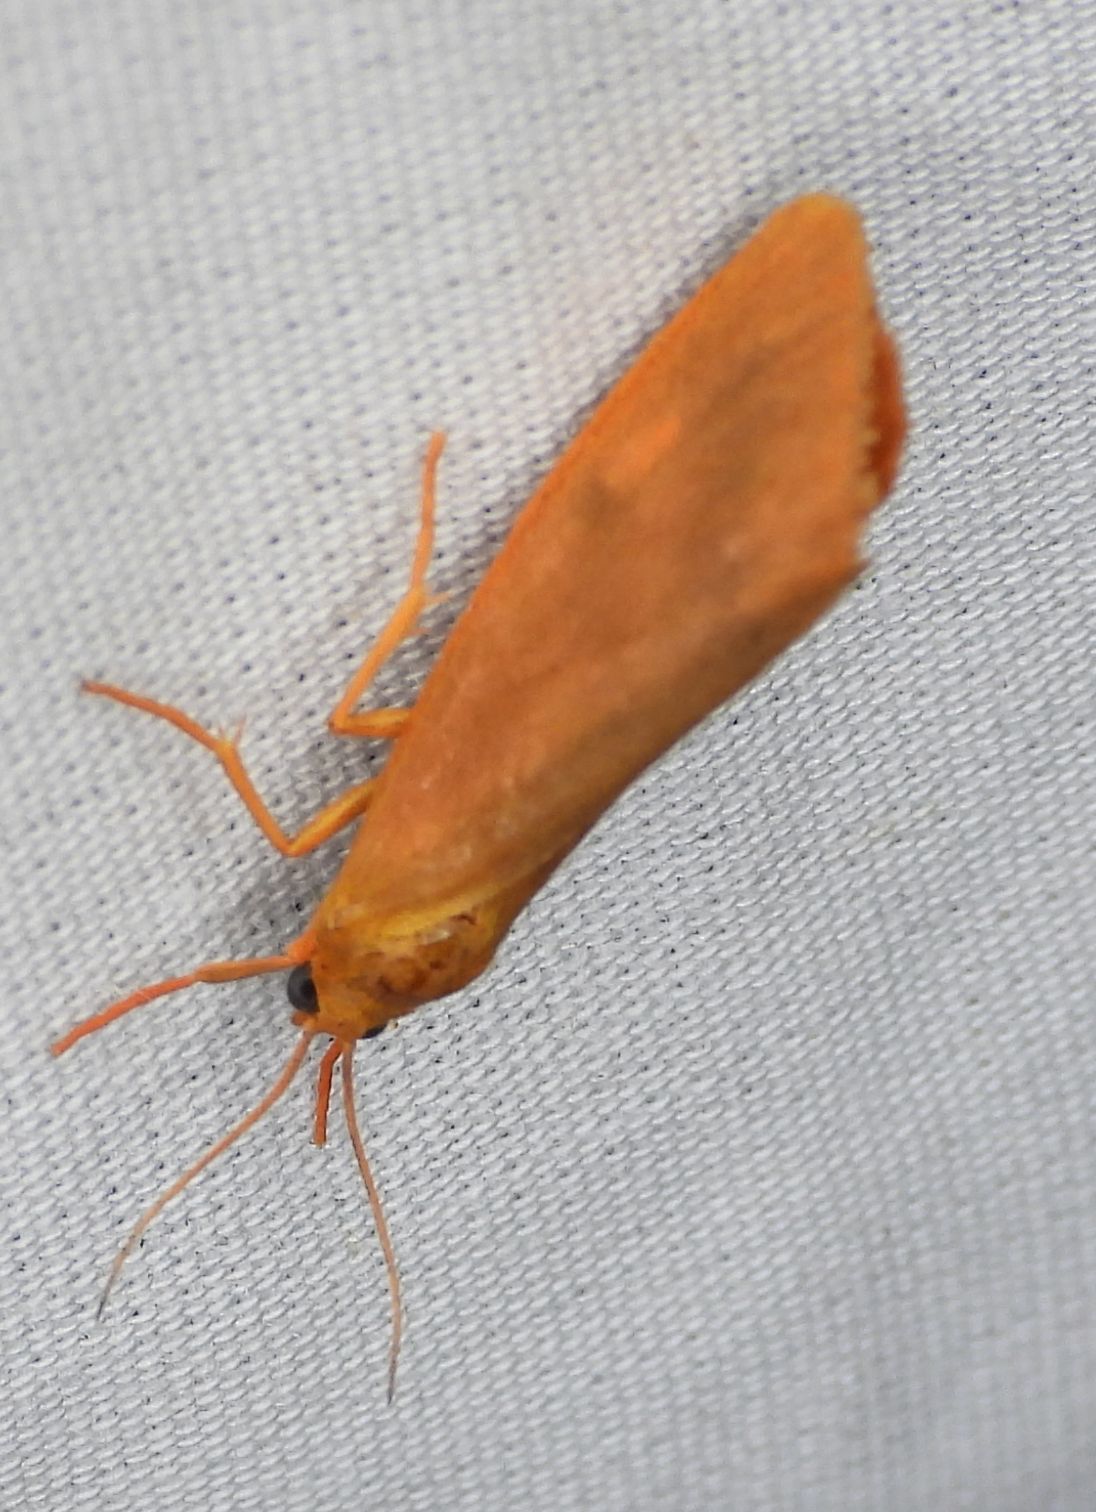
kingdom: Animalia
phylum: Arthropoda
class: Insecta
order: Lepidoptera
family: Erebidae
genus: Virbia
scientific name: Virbia aurantiaca
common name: Orange virbia moth
